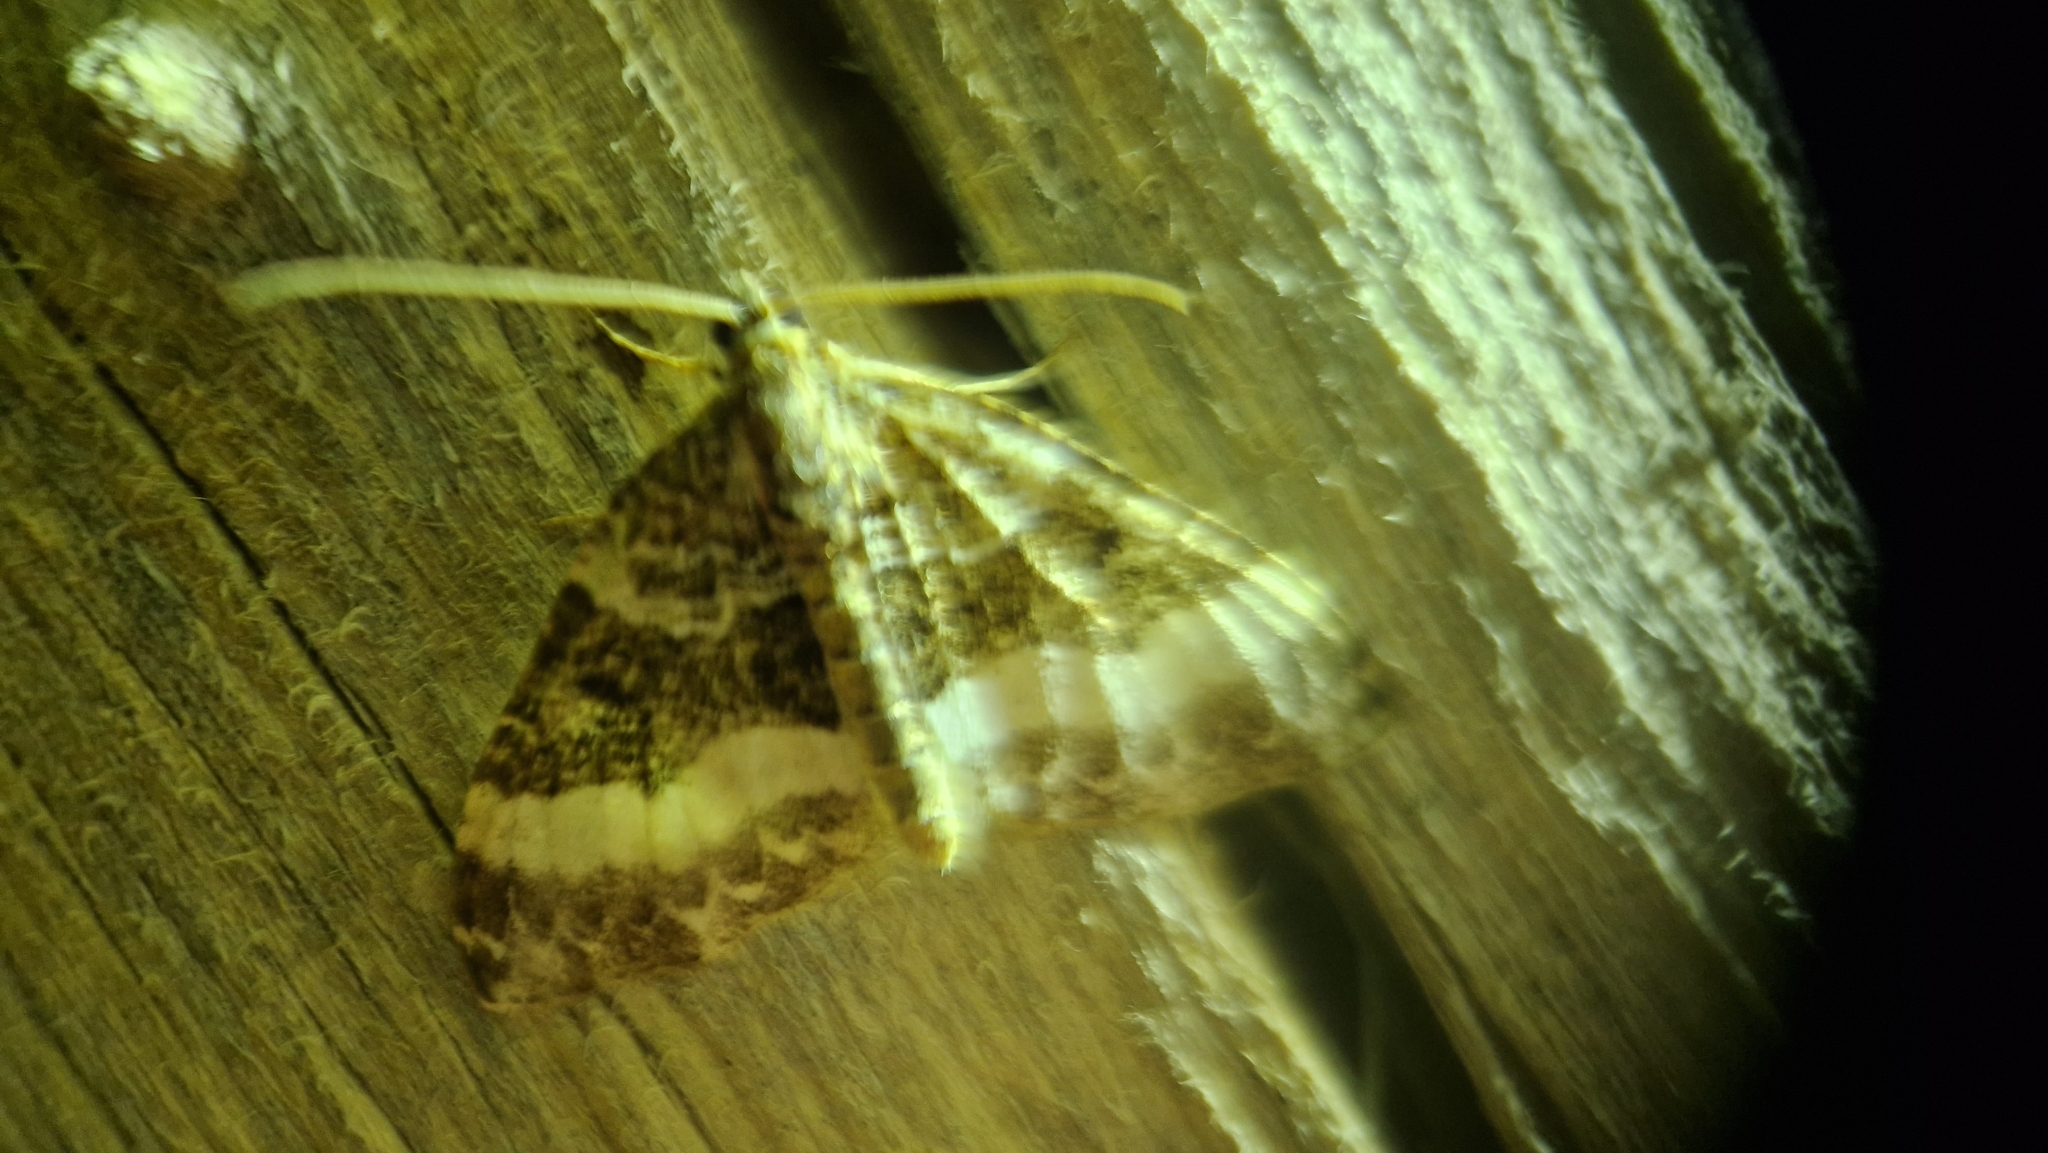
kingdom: Animalia
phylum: Arthropoda
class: Insecta
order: Lepidoptera
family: Geometridae
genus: Euphyia
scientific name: Euphyia unangulata
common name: Sharp-angled carpet
